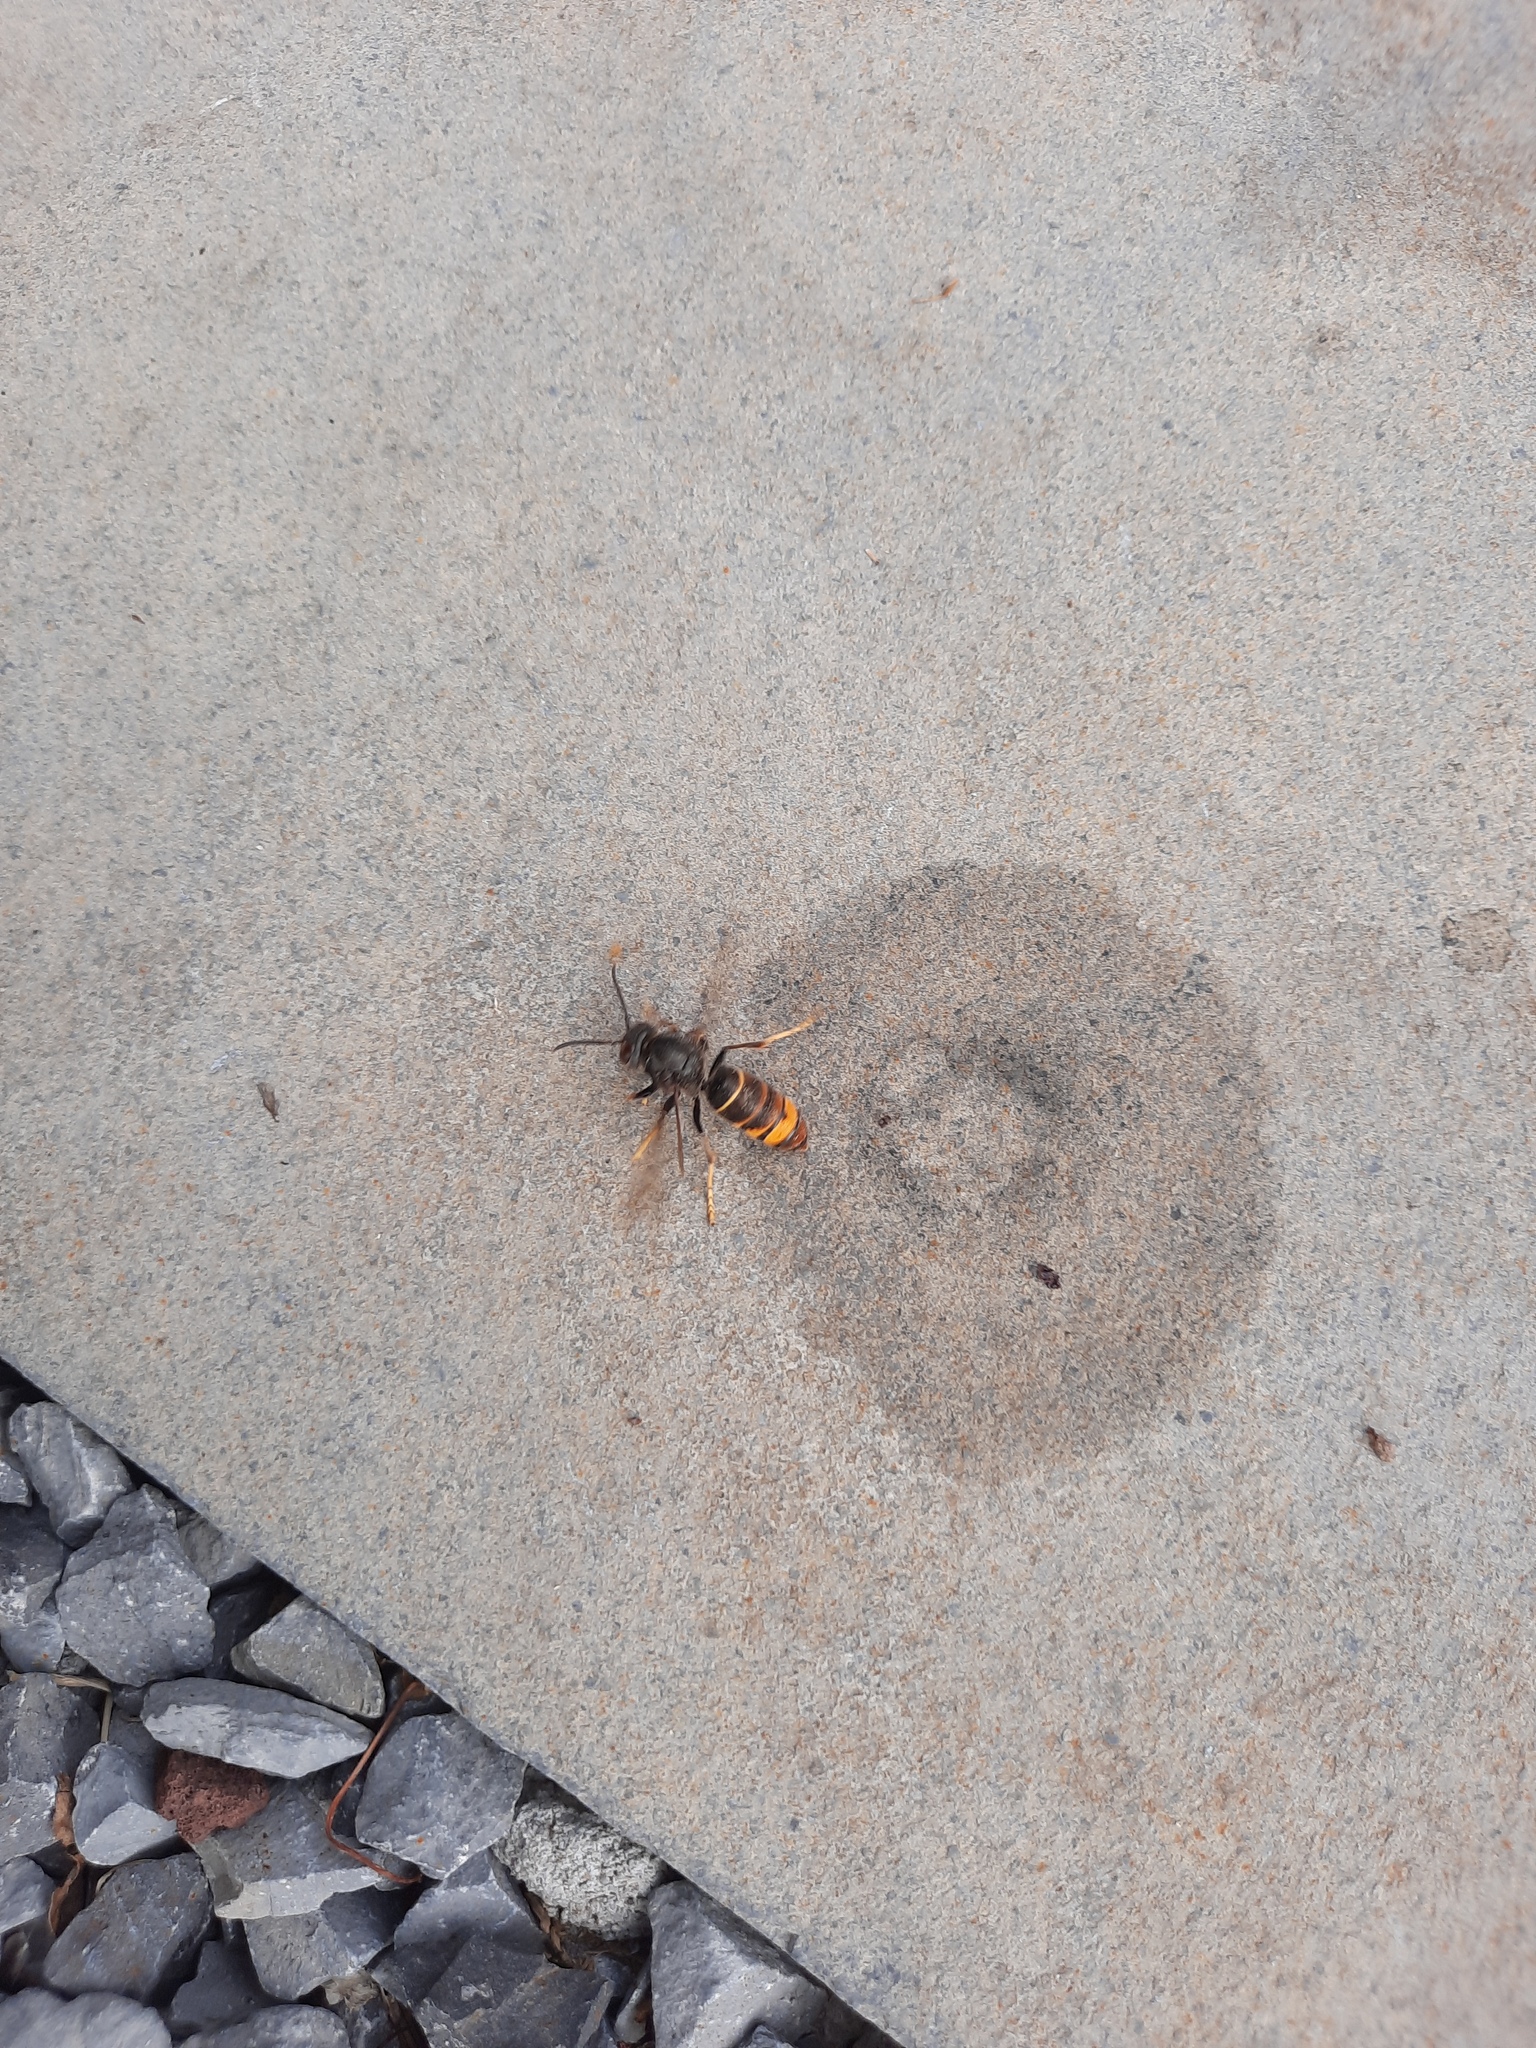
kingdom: Animalia
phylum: Arthropoda
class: Insecta
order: Hymenoptera
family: Vespidae
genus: Vespa
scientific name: Vespa velutina
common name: Asian hornet
